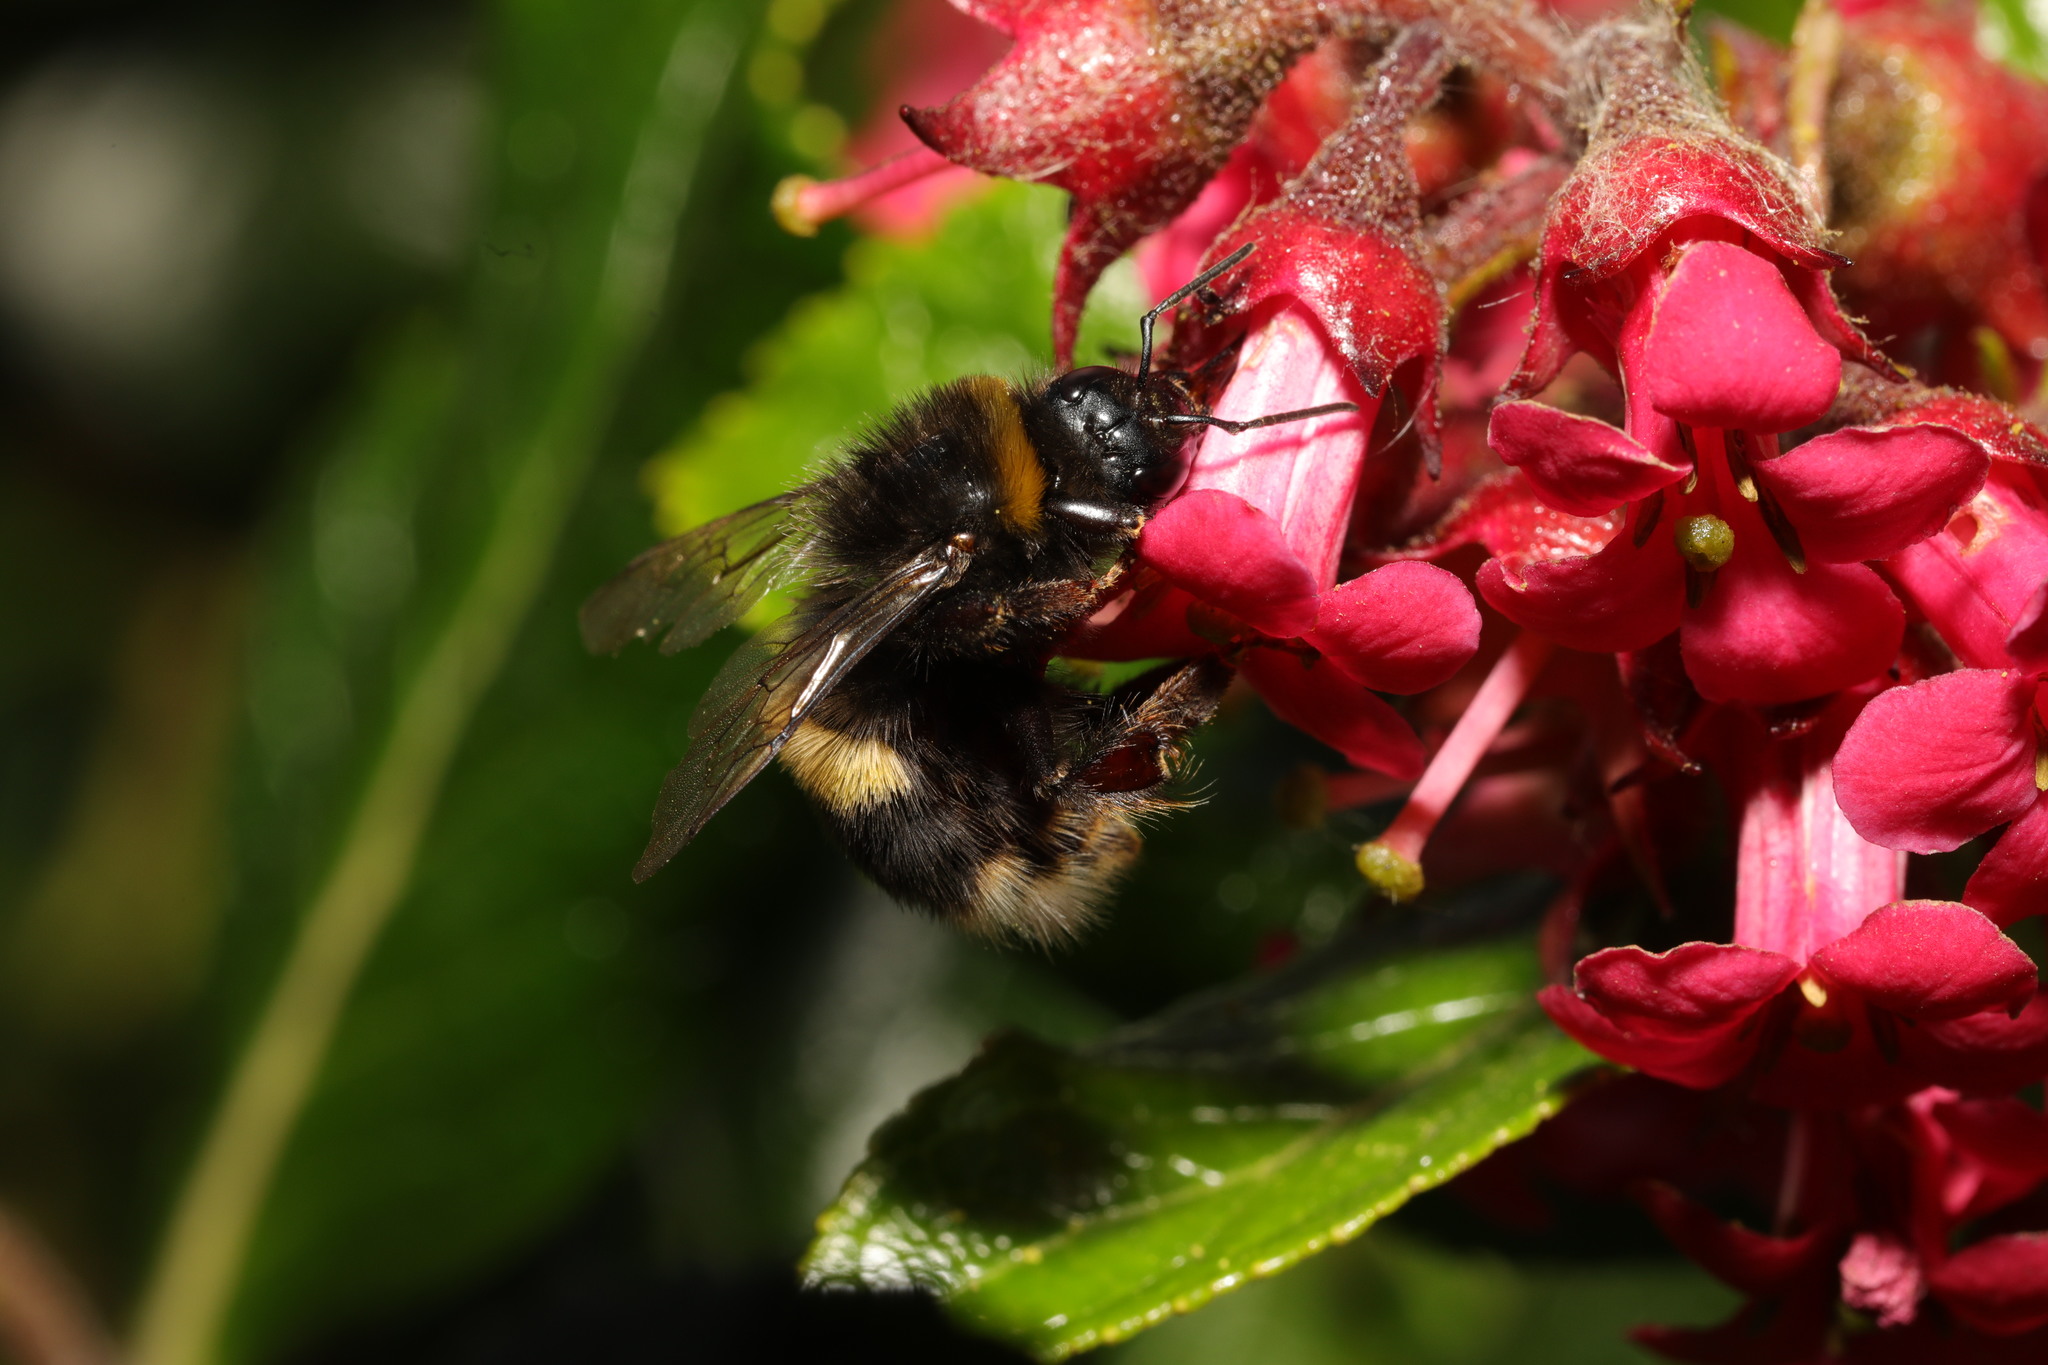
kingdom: Animalia
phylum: Arthropoda
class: Insecta
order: Hymenoptera
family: Apidae
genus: Bombus
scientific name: Bombus terrestris
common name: Buff-tailed bumblebee
